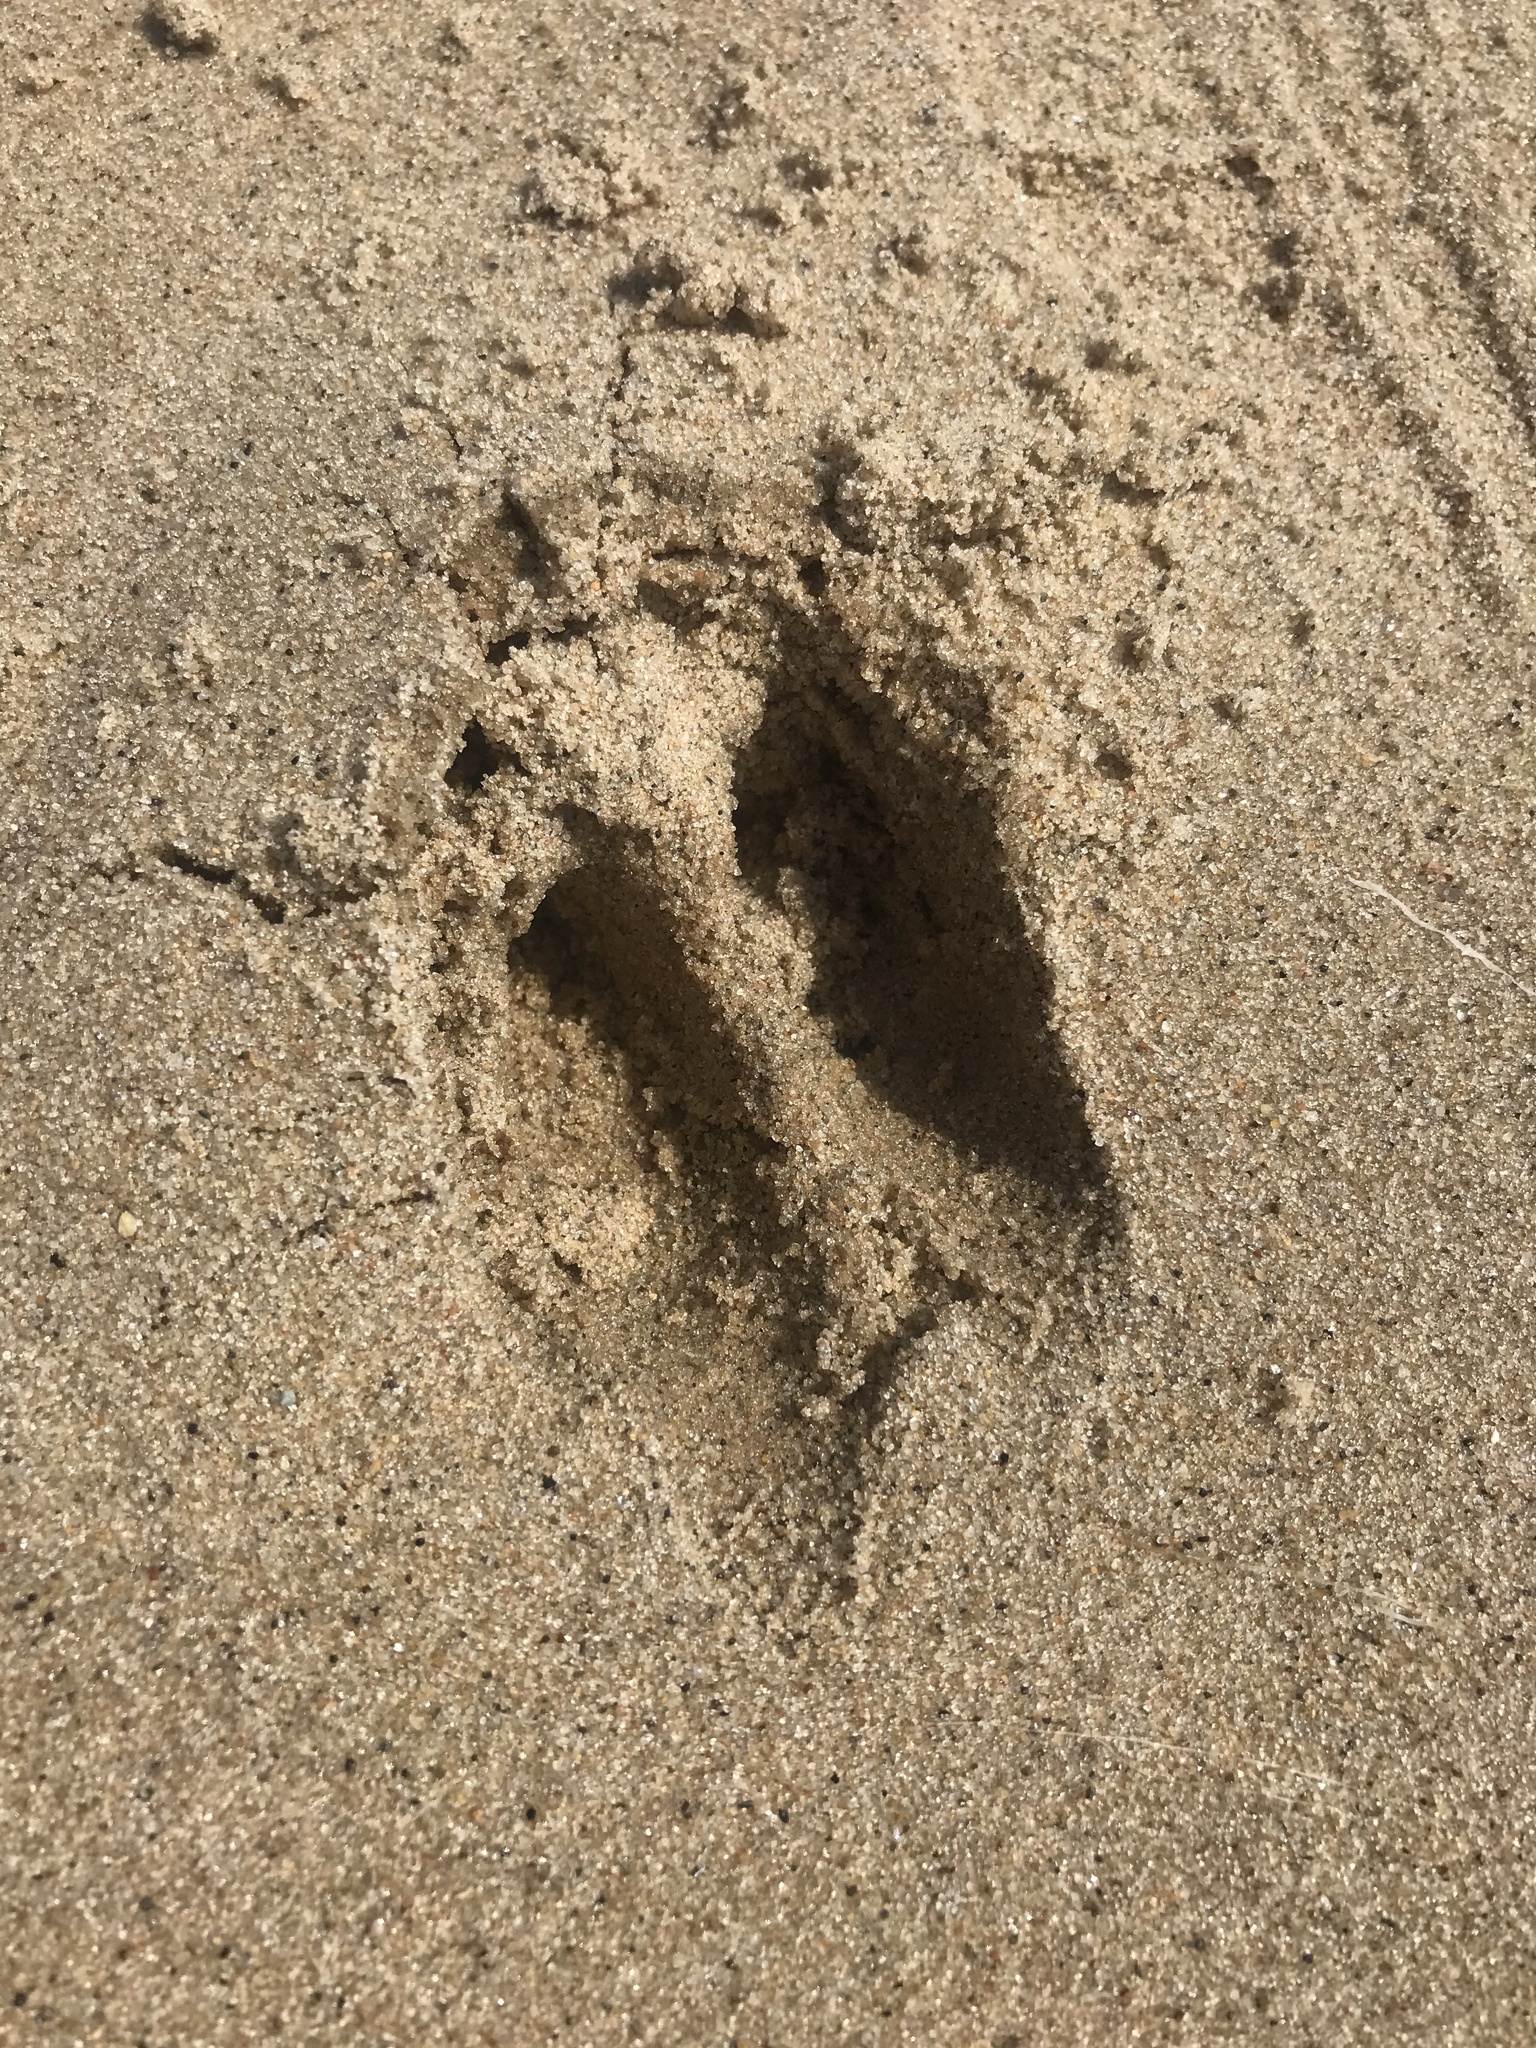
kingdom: Animalia
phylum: Chordata
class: Mammalia
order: Artiodactyla
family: Cervidae
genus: Odocoileus
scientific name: Odocoileus virginianus
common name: White-tailed deer
